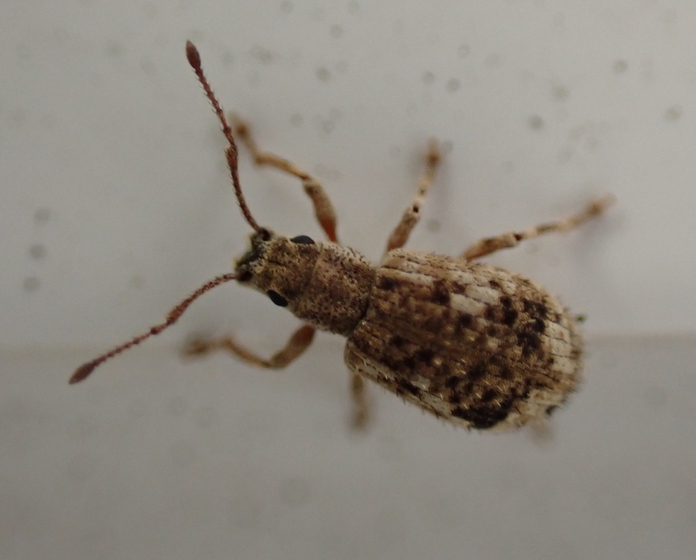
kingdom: Animalia
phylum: Arthropoda
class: Insecta
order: Coleoptera
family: Curculionidae
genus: Pseudoedophrys
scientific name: Pseudoedophrys hilleri
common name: Weevil
